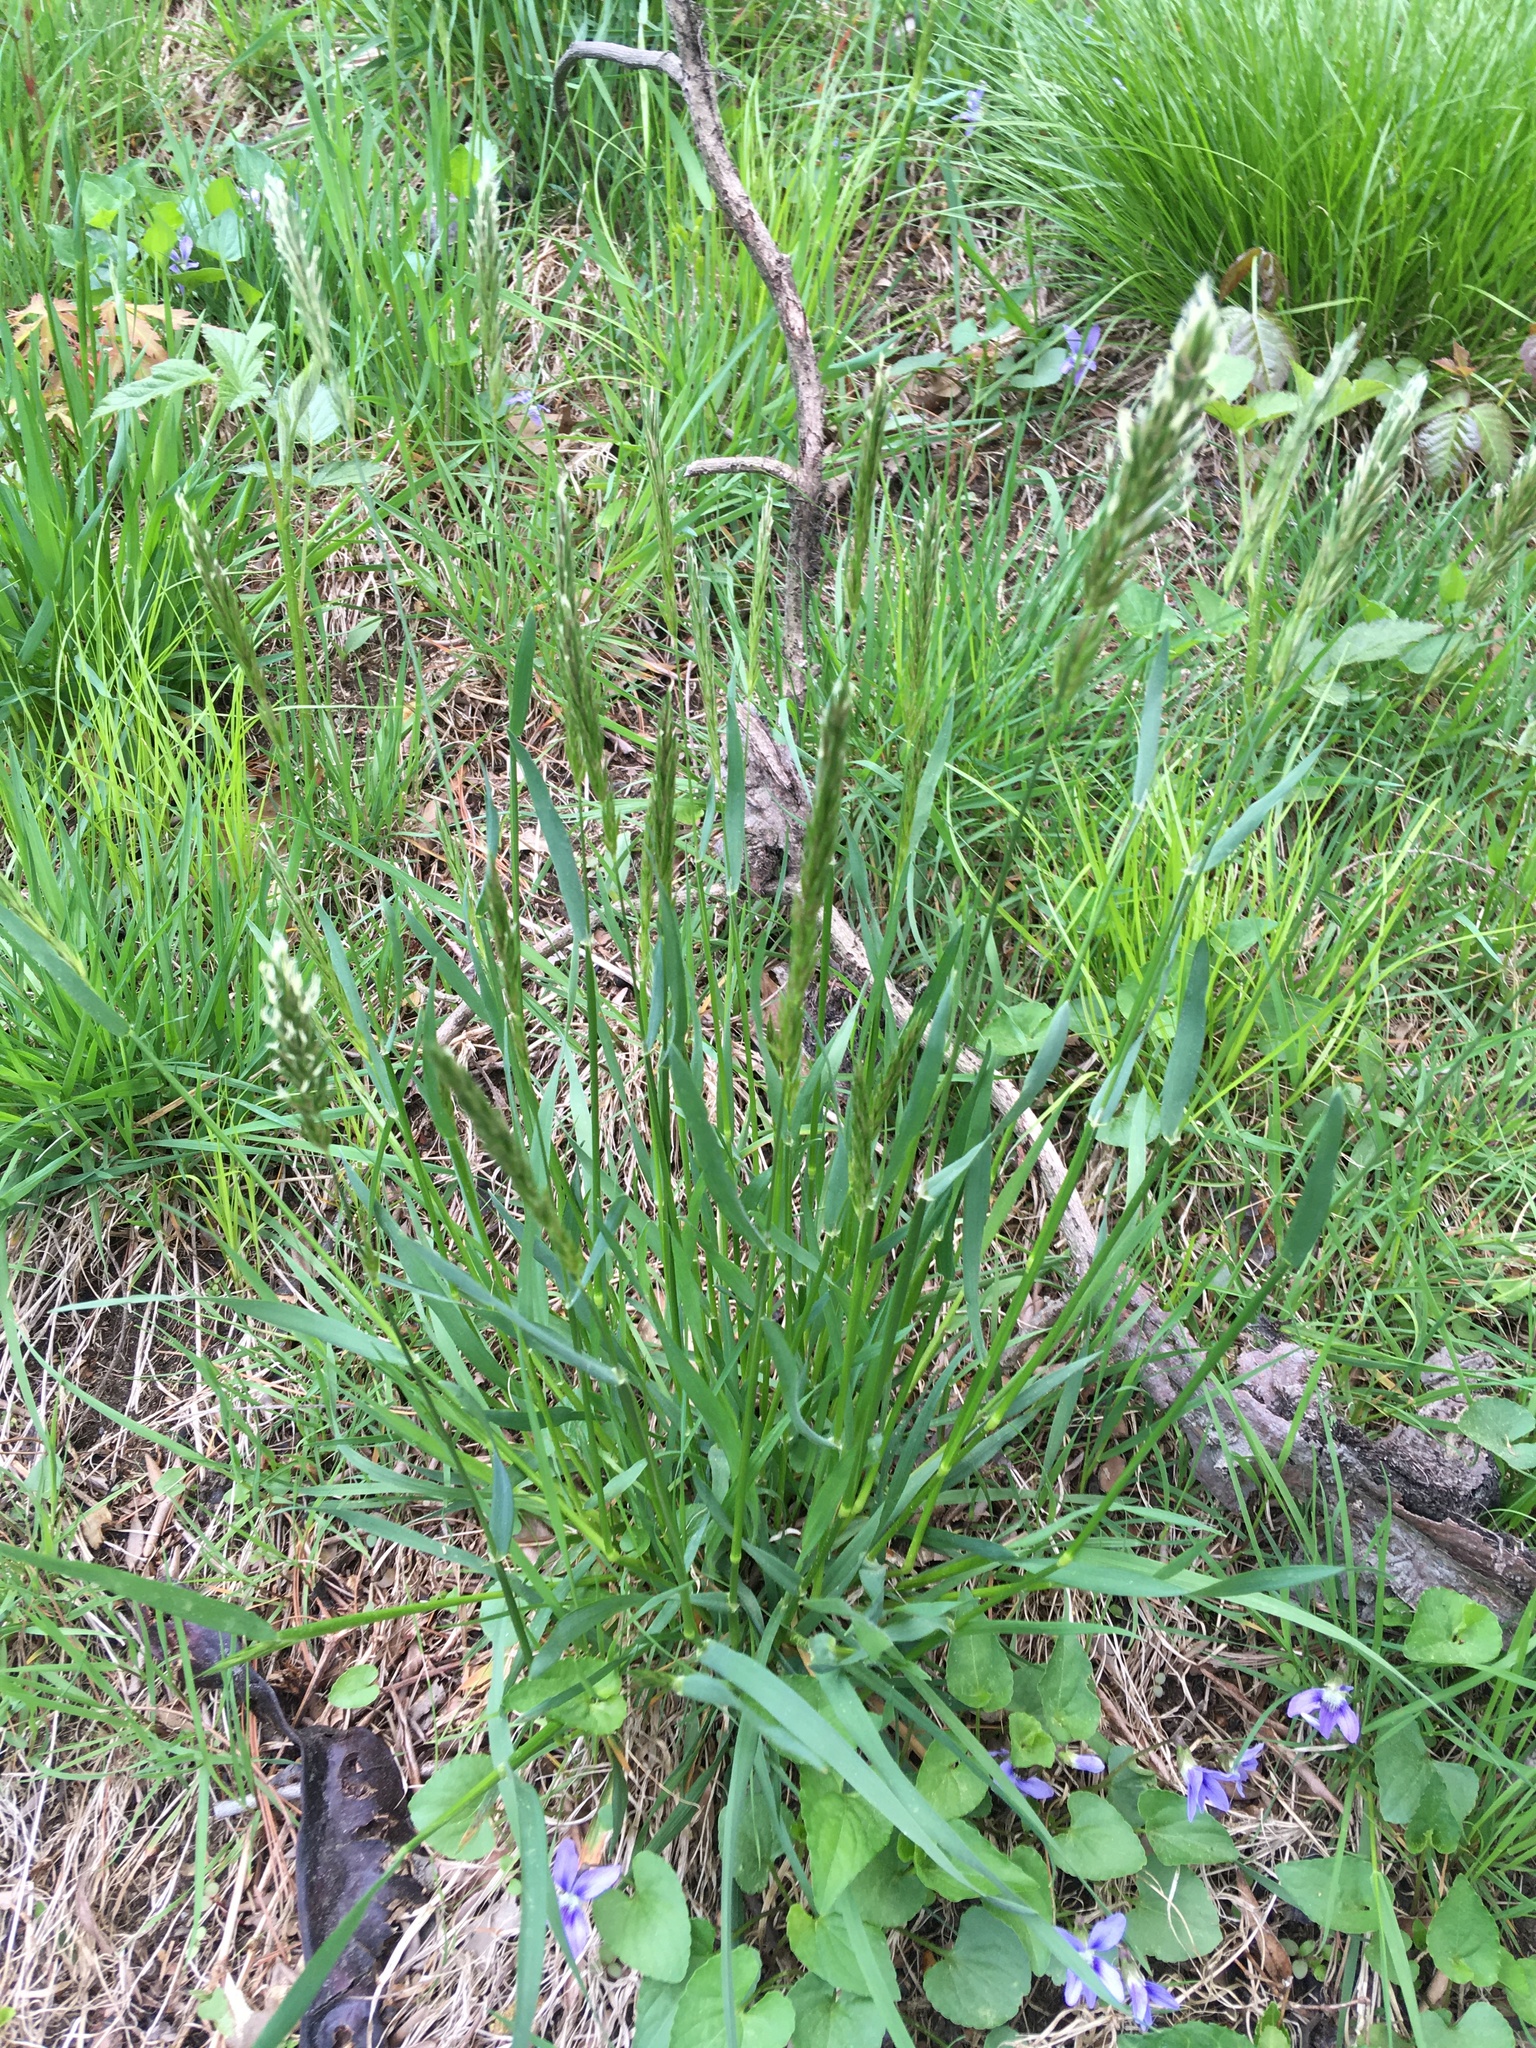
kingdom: Plantae
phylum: Tracheophyta
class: Liliopsida
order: Poales
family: Poaceae
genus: Anthoxanthum
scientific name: Anthoxanthum odoratum
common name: Sweet vernalgrass
